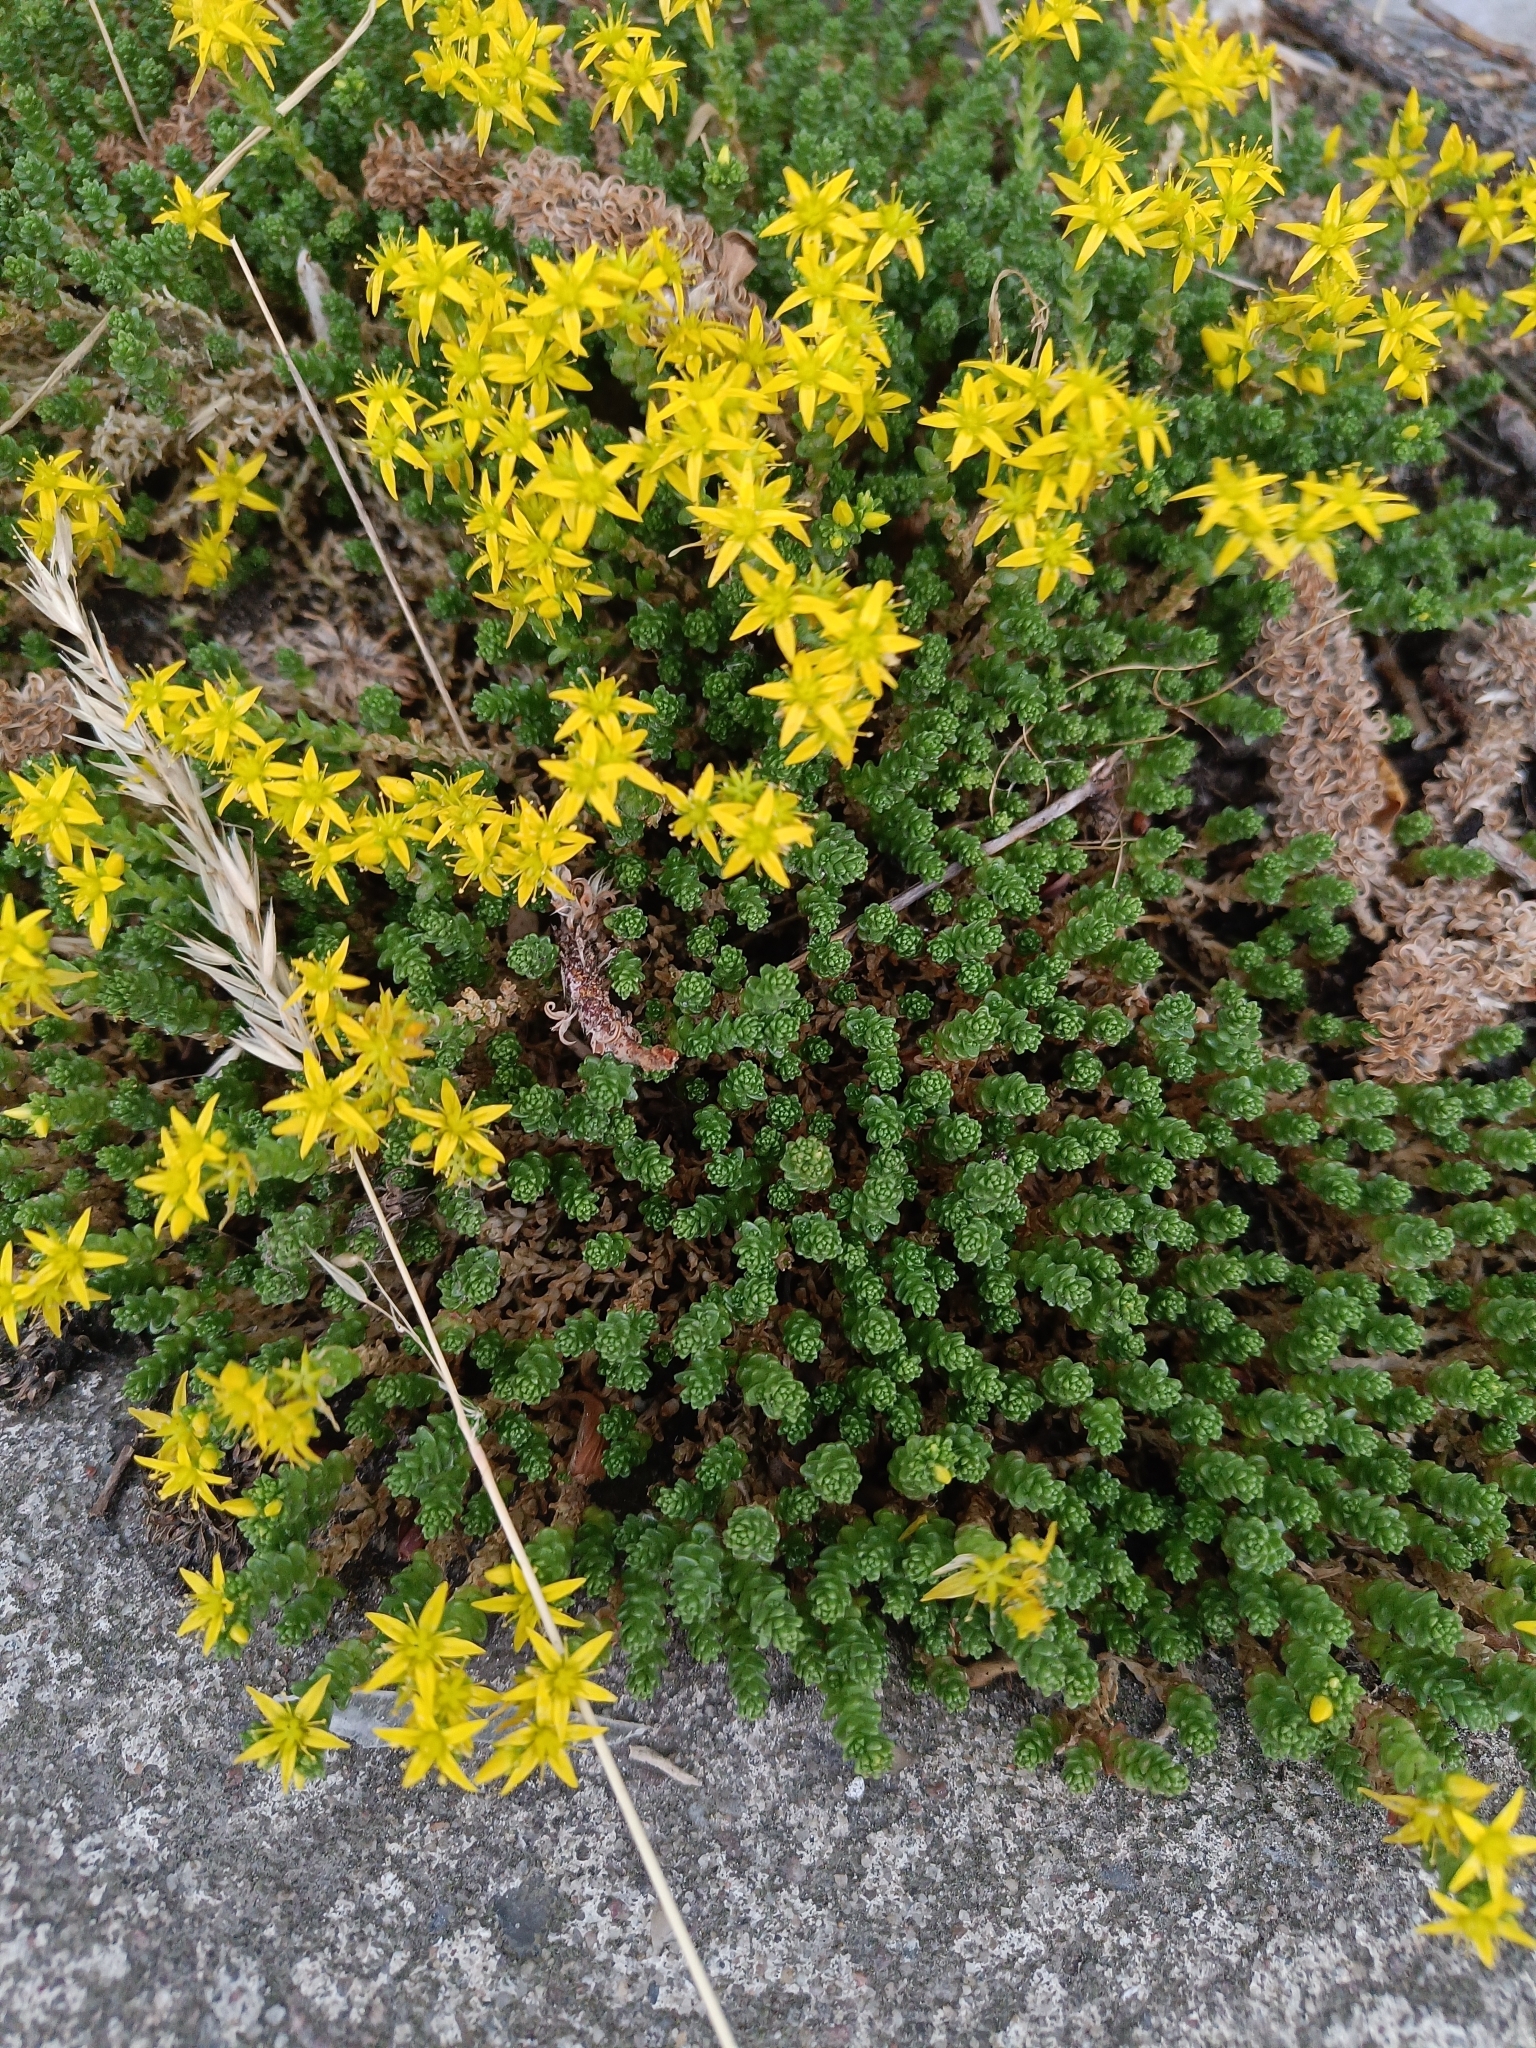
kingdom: Plantae
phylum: Tracheophyta
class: Magnoliopsida
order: Saxifragales
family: Crassulaceae
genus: Sedum
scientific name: Sedum acre
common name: Biting stonecrop
